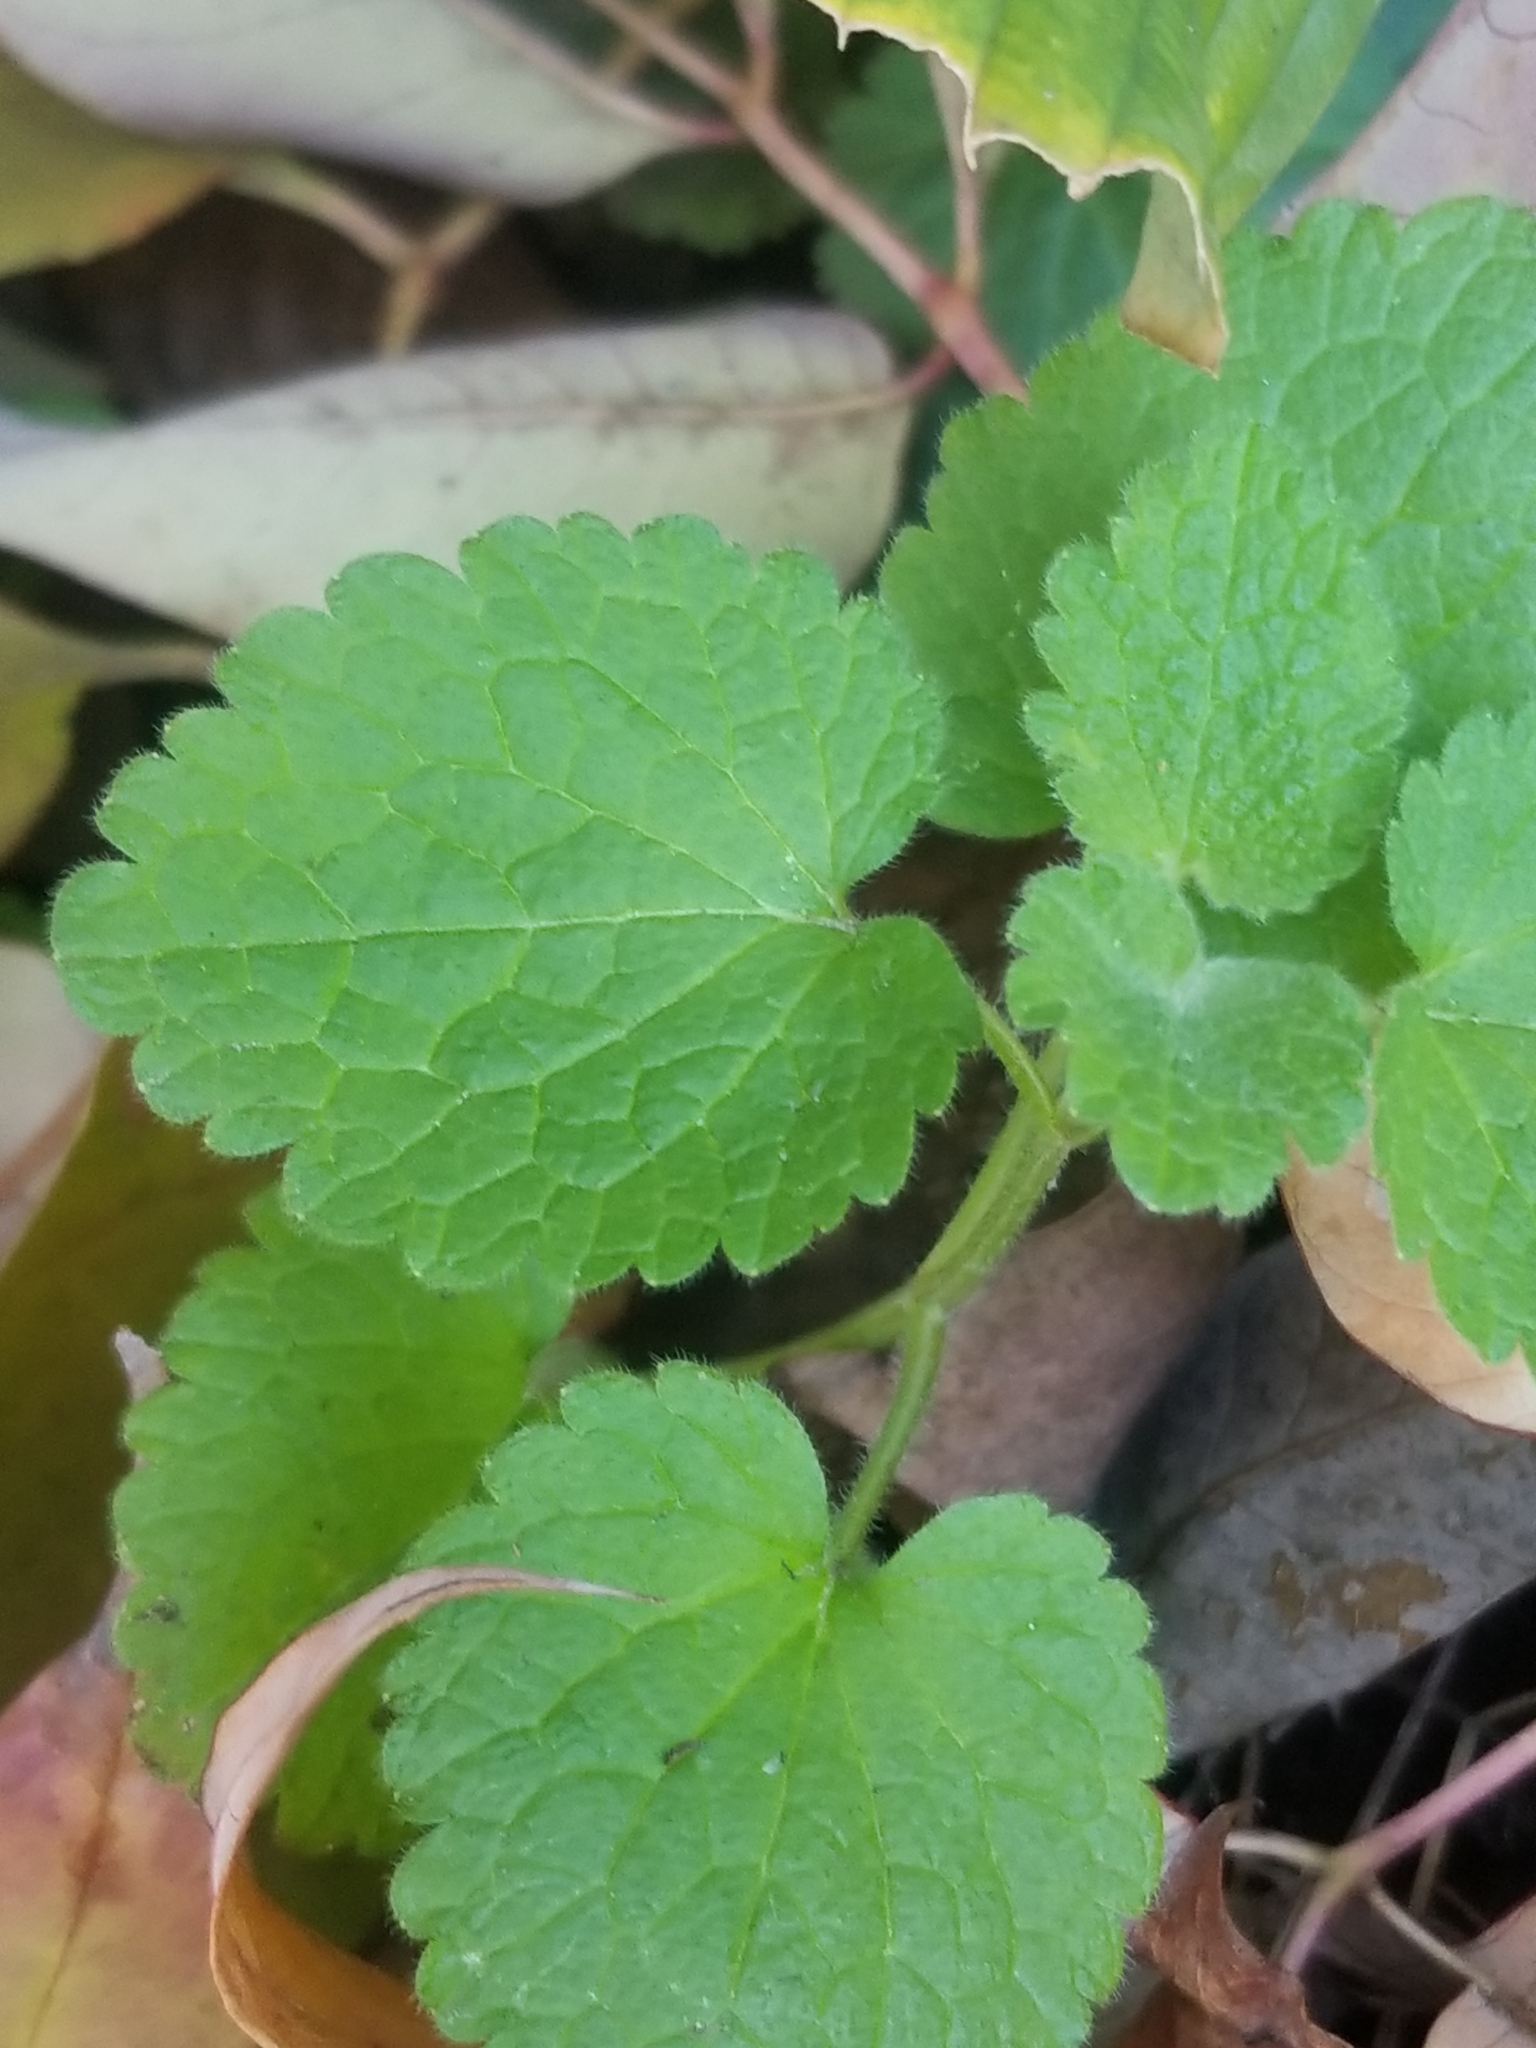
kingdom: Plantae
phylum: Tracheophyta
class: Magnoliopsida
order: Lamiales
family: Lamiaceae
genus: Lamium
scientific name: Lamium purpureum
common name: Red dead-nettle
